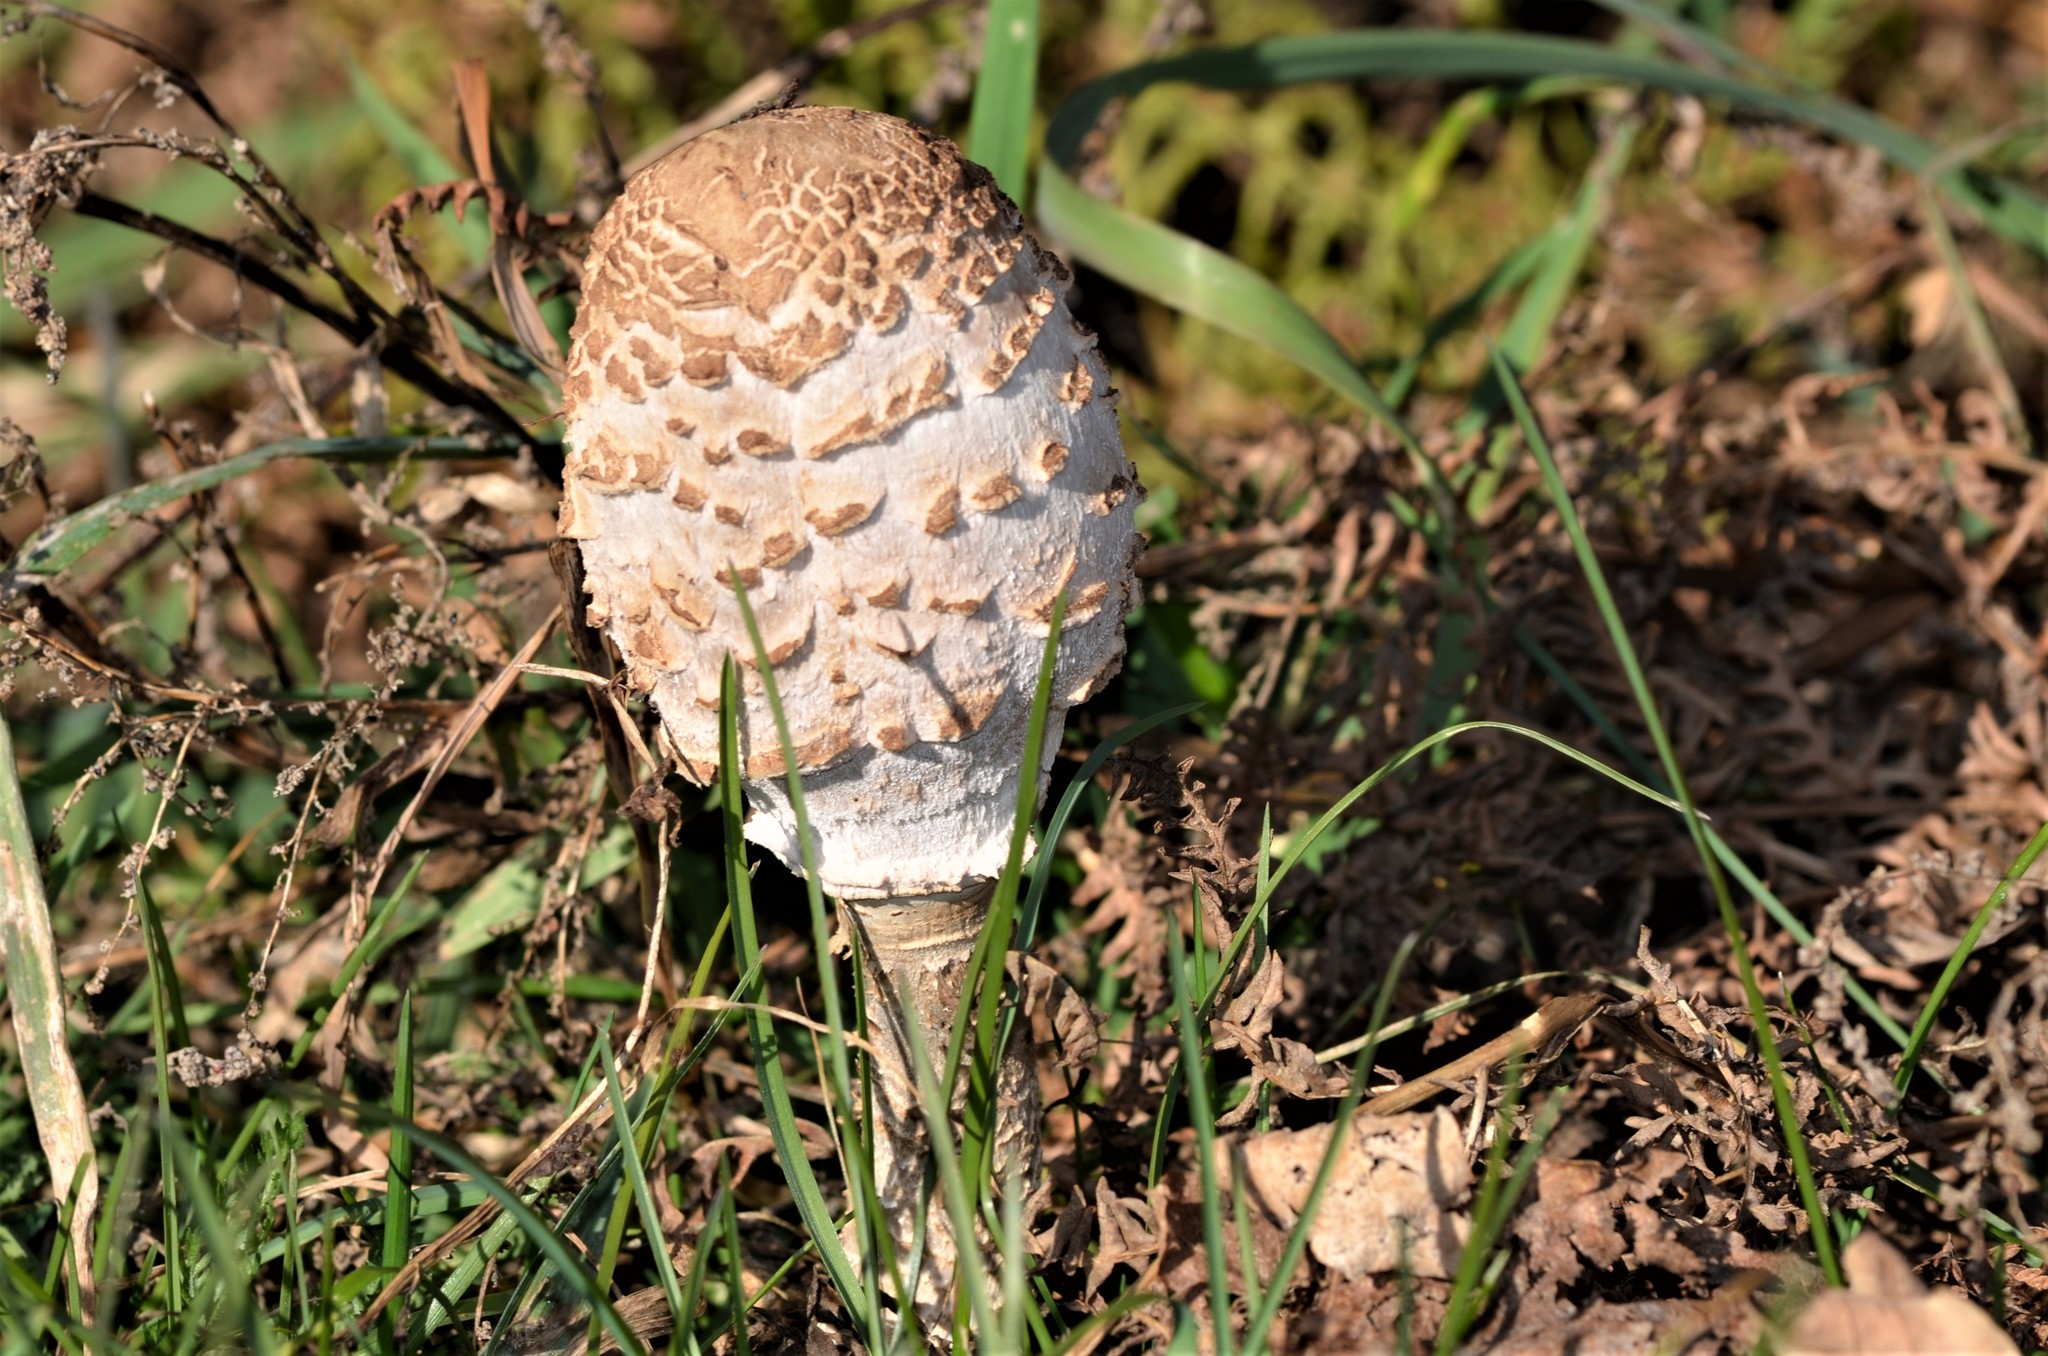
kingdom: Fungi
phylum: Basidiomycota
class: Agaricomycetes
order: Agaricales
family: Agaricaceae
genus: Macrolepiota
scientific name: Macrolepiota procera
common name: Parasol
